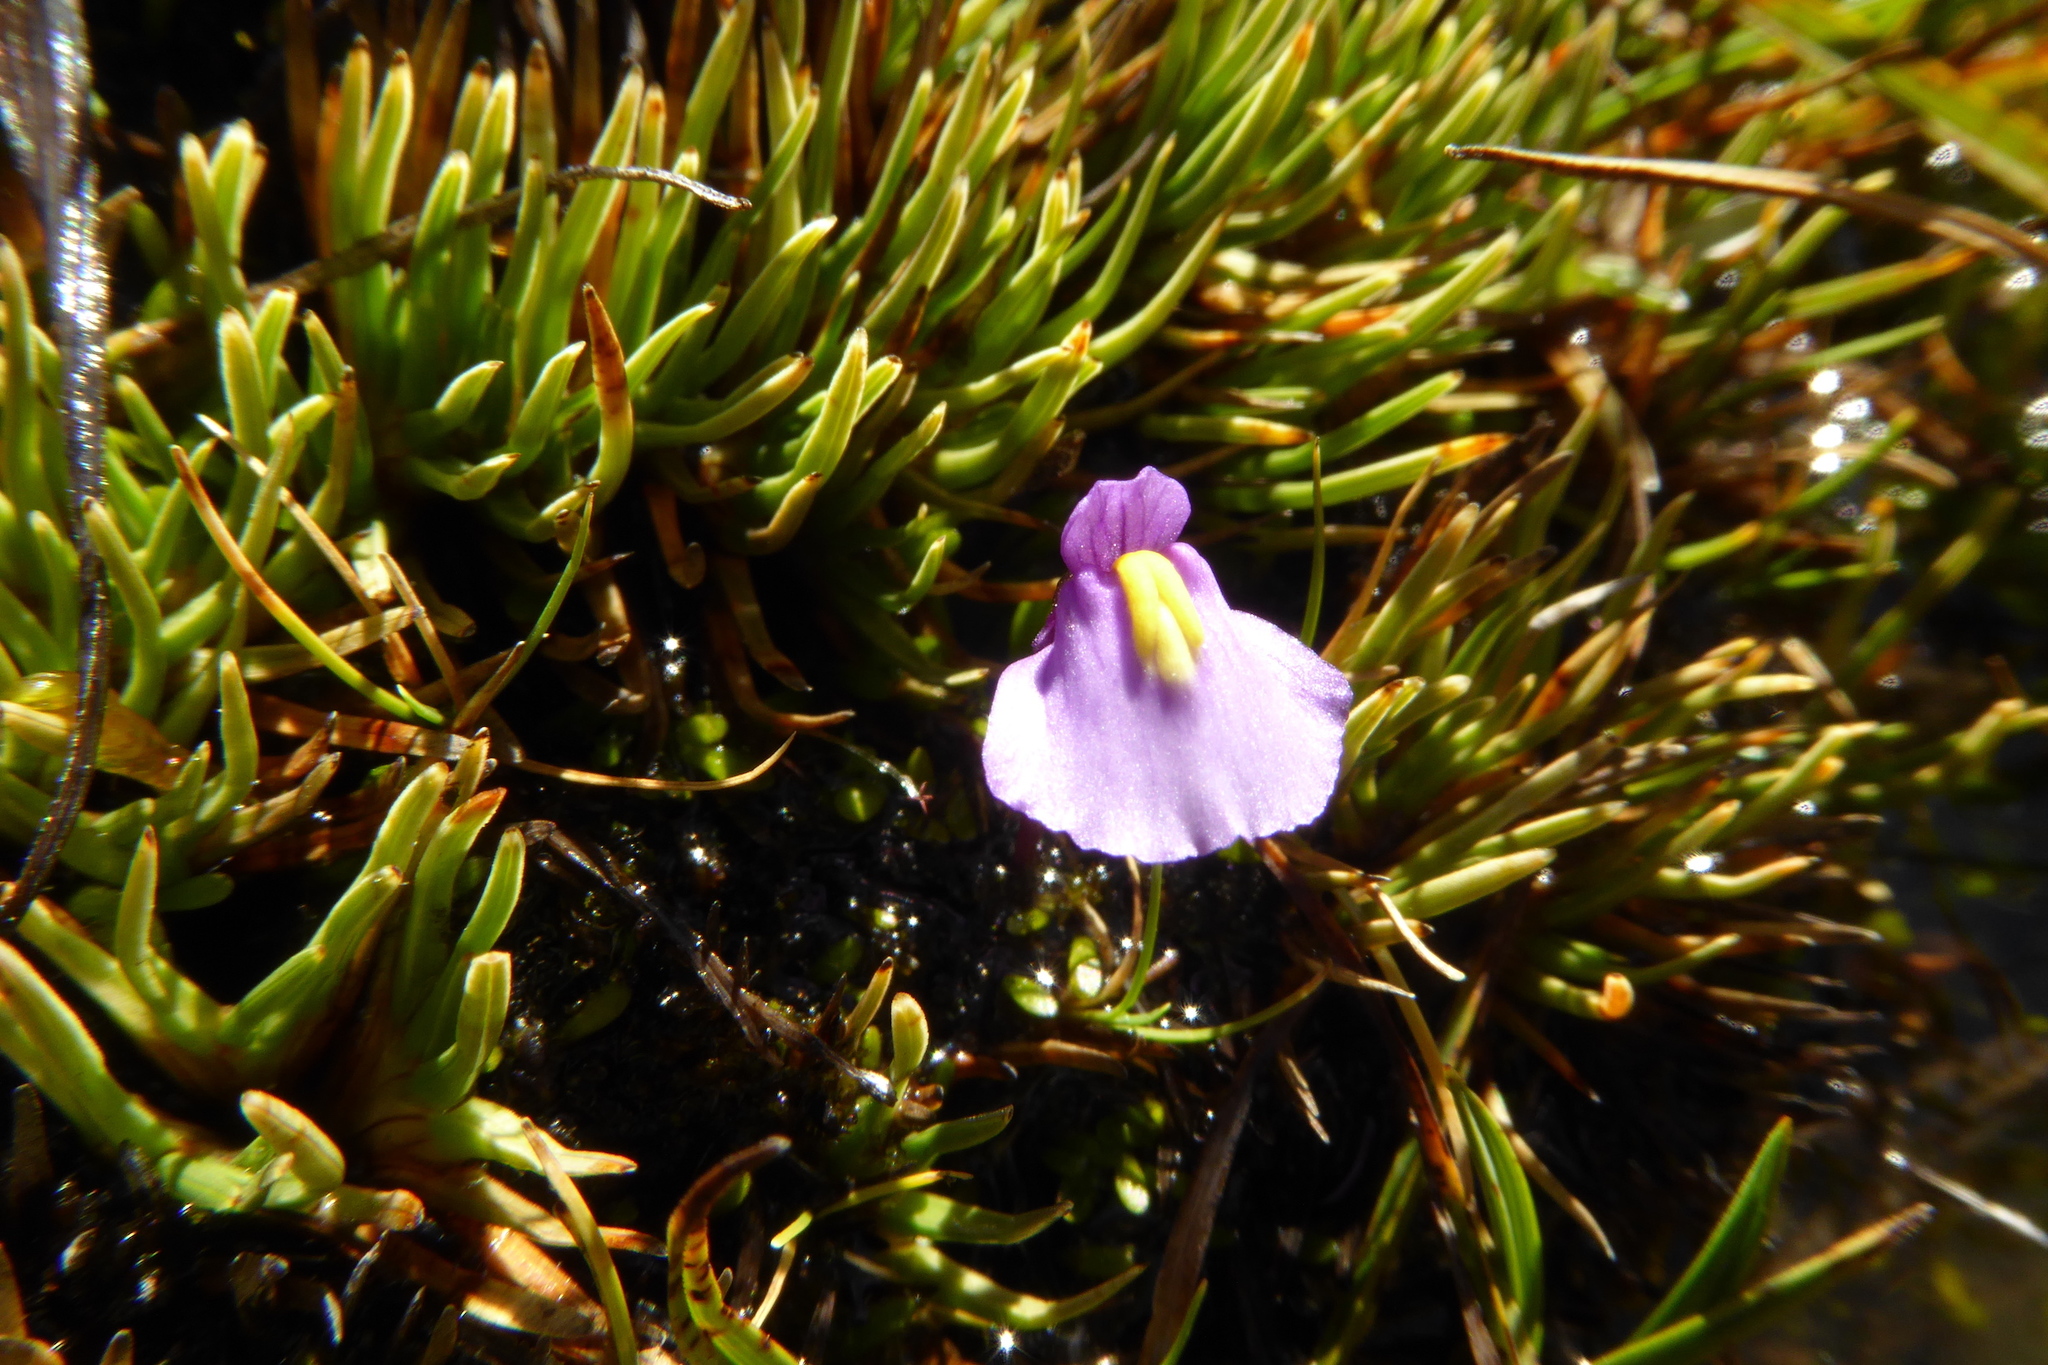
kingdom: Plantae
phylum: Tracheophyta
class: Magnoliopsida
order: Lamiales
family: Lentibulariaceae
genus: Utricularia
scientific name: Utricularia dichotoma
